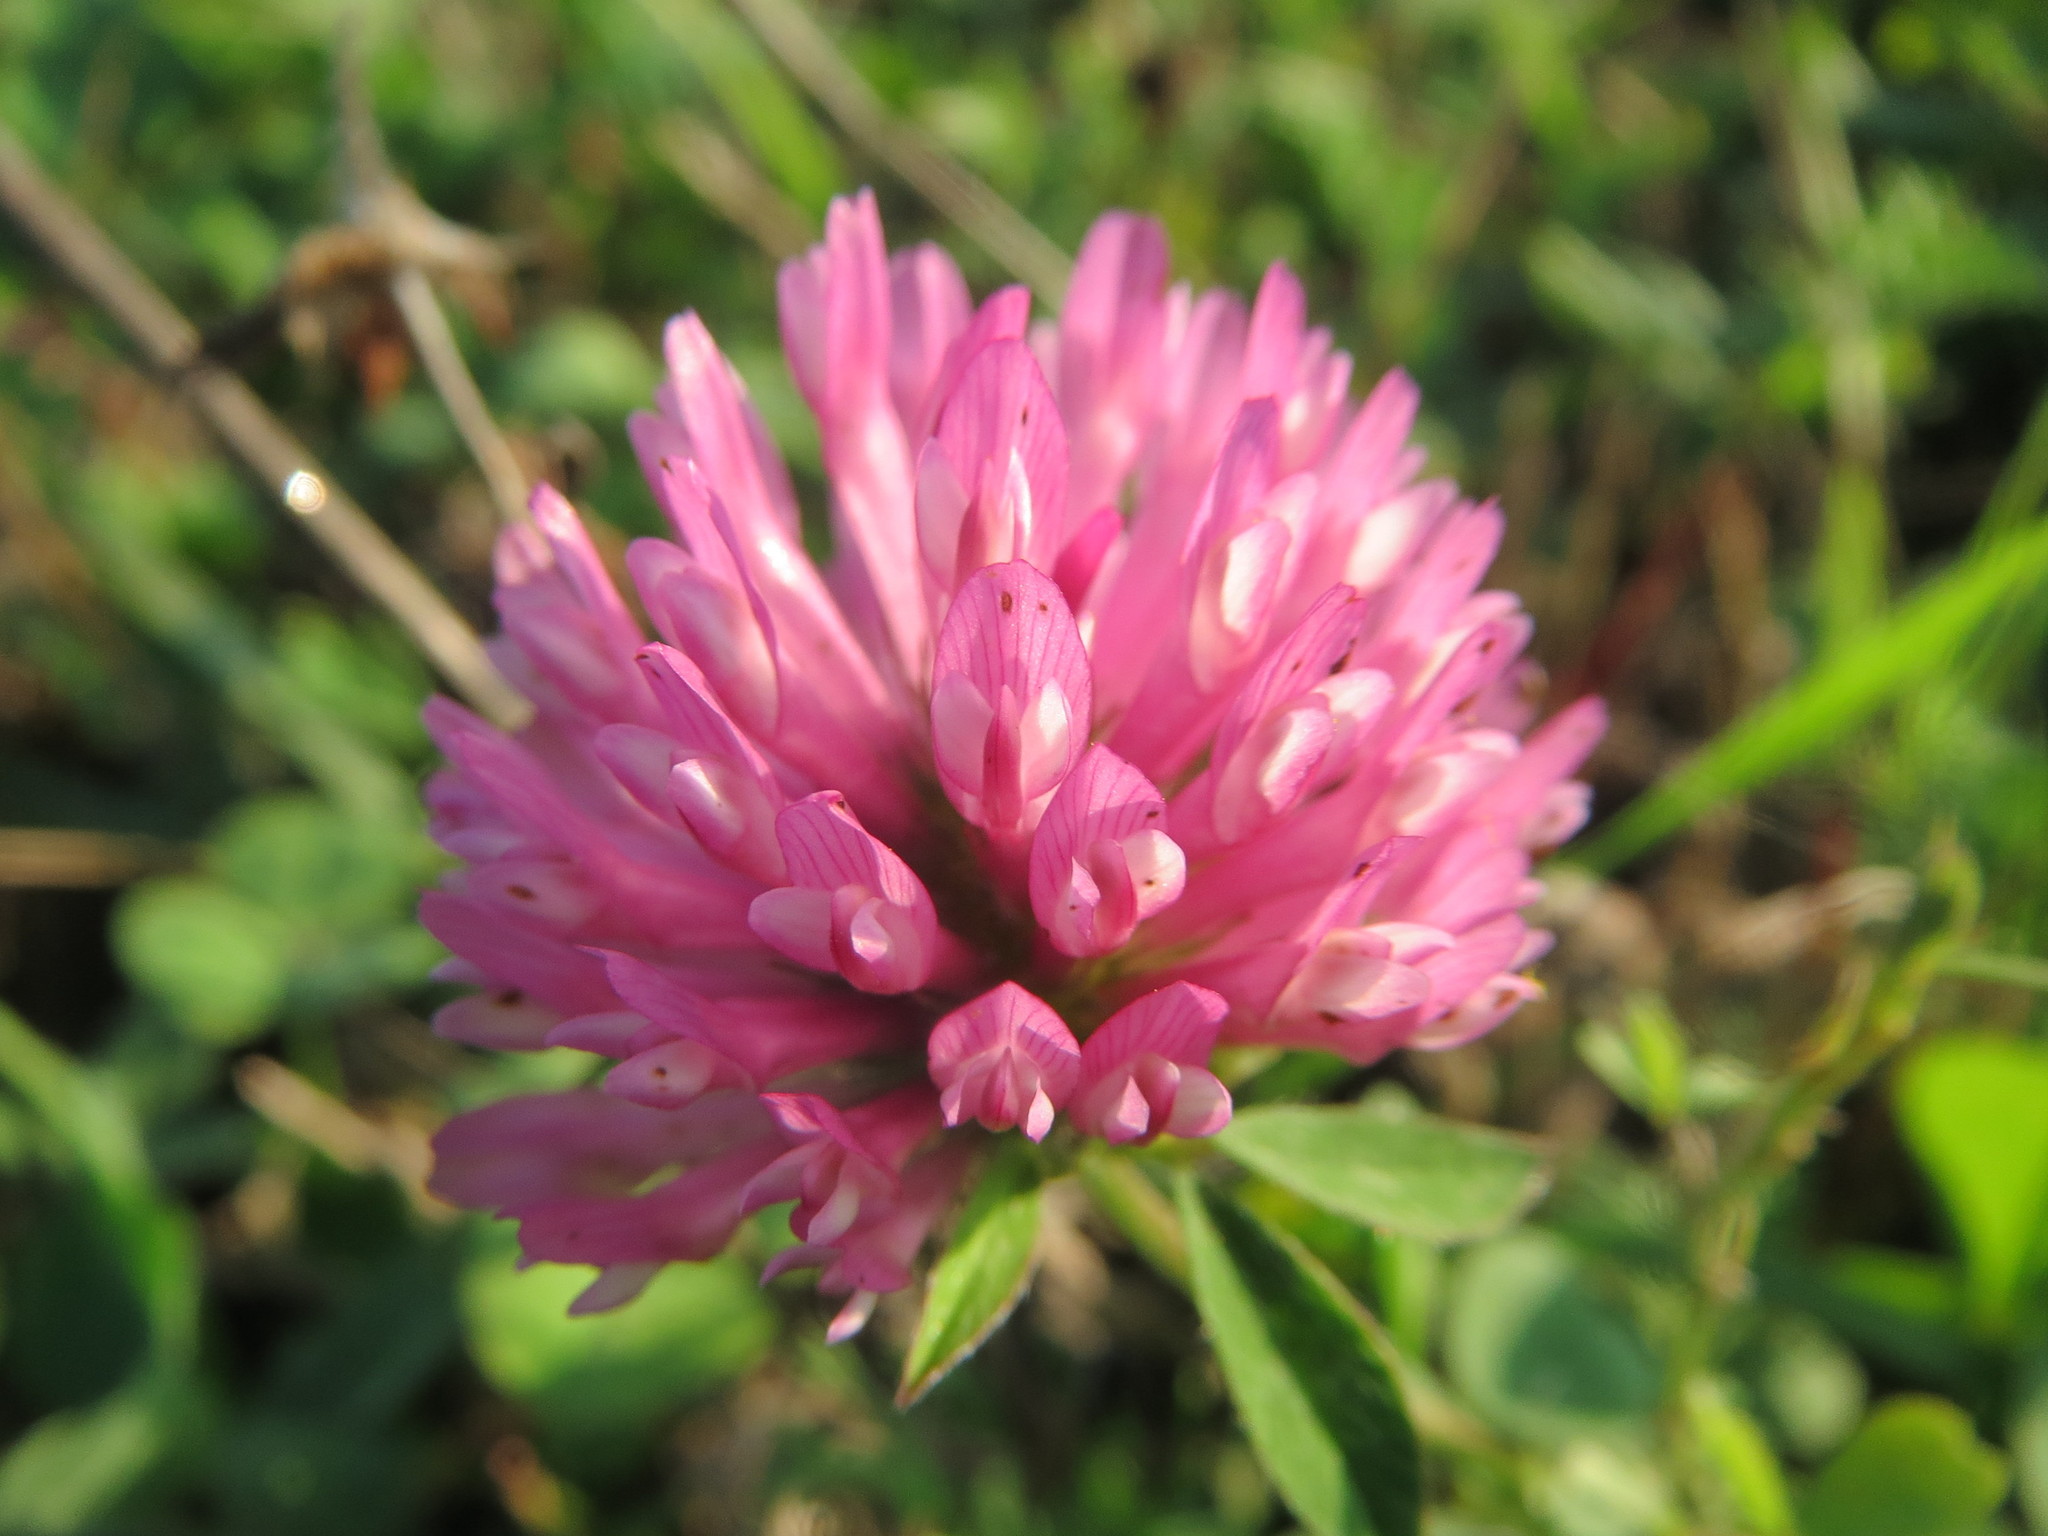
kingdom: Plantae
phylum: Tracheophyta
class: Magnoliopsida
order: Fabales
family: Fabaceae
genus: Trifolium
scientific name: Trifolium pratense
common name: Red clover
